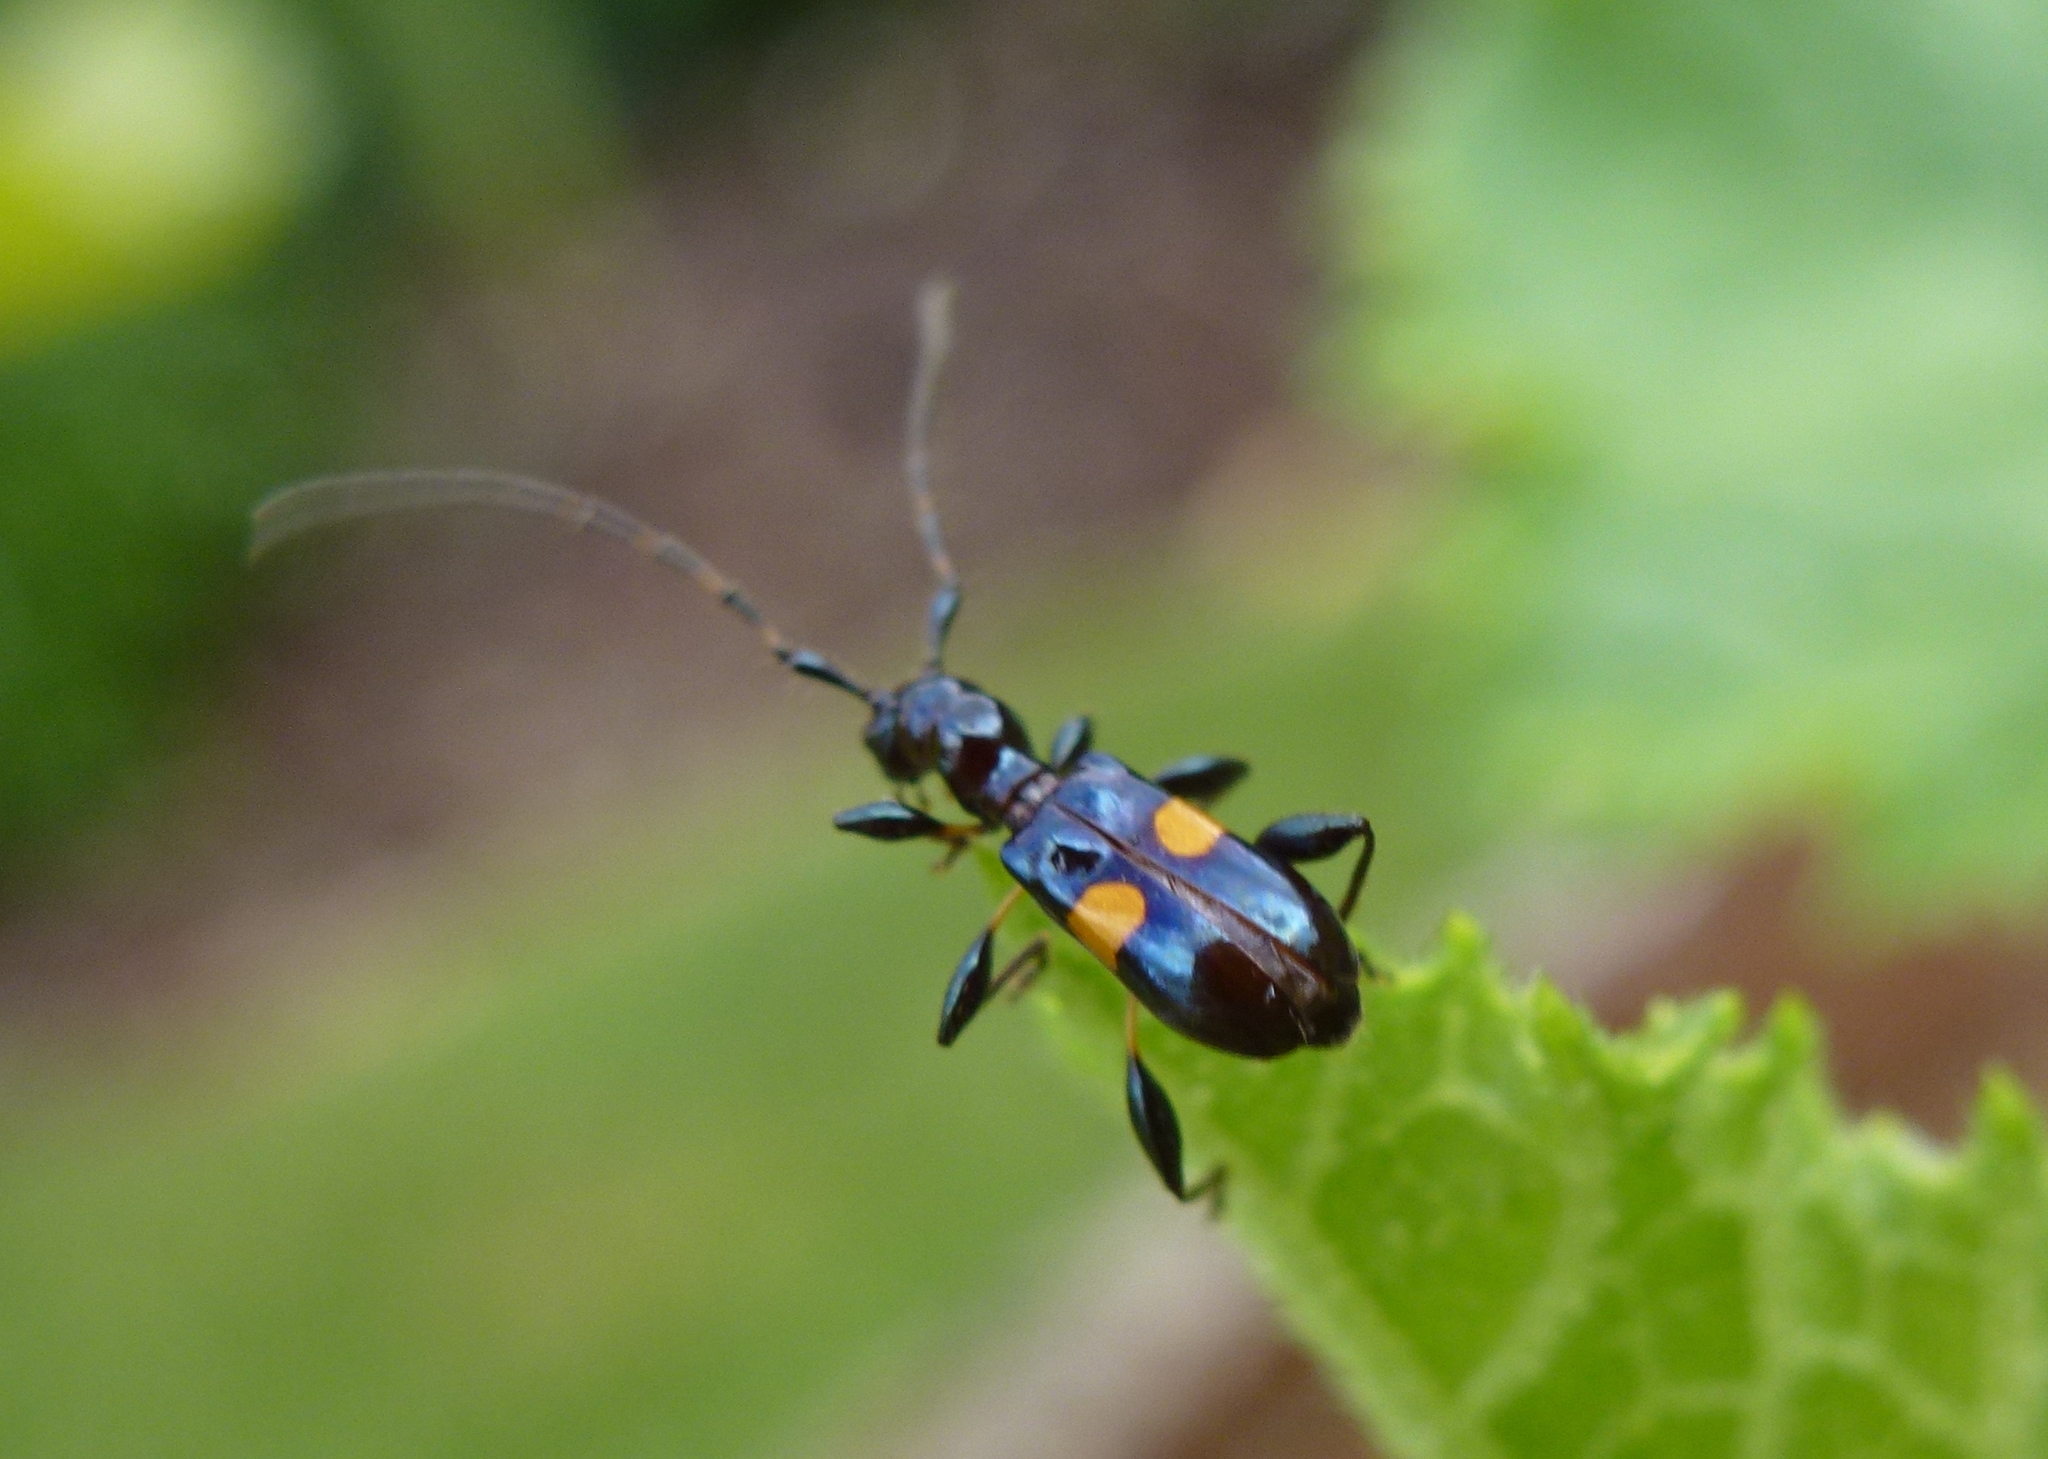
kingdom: Animalia
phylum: Arthropoda
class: Insecta
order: Coleoptera
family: Cerambycidae
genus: Zorion
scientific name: Zorion guttigerum
